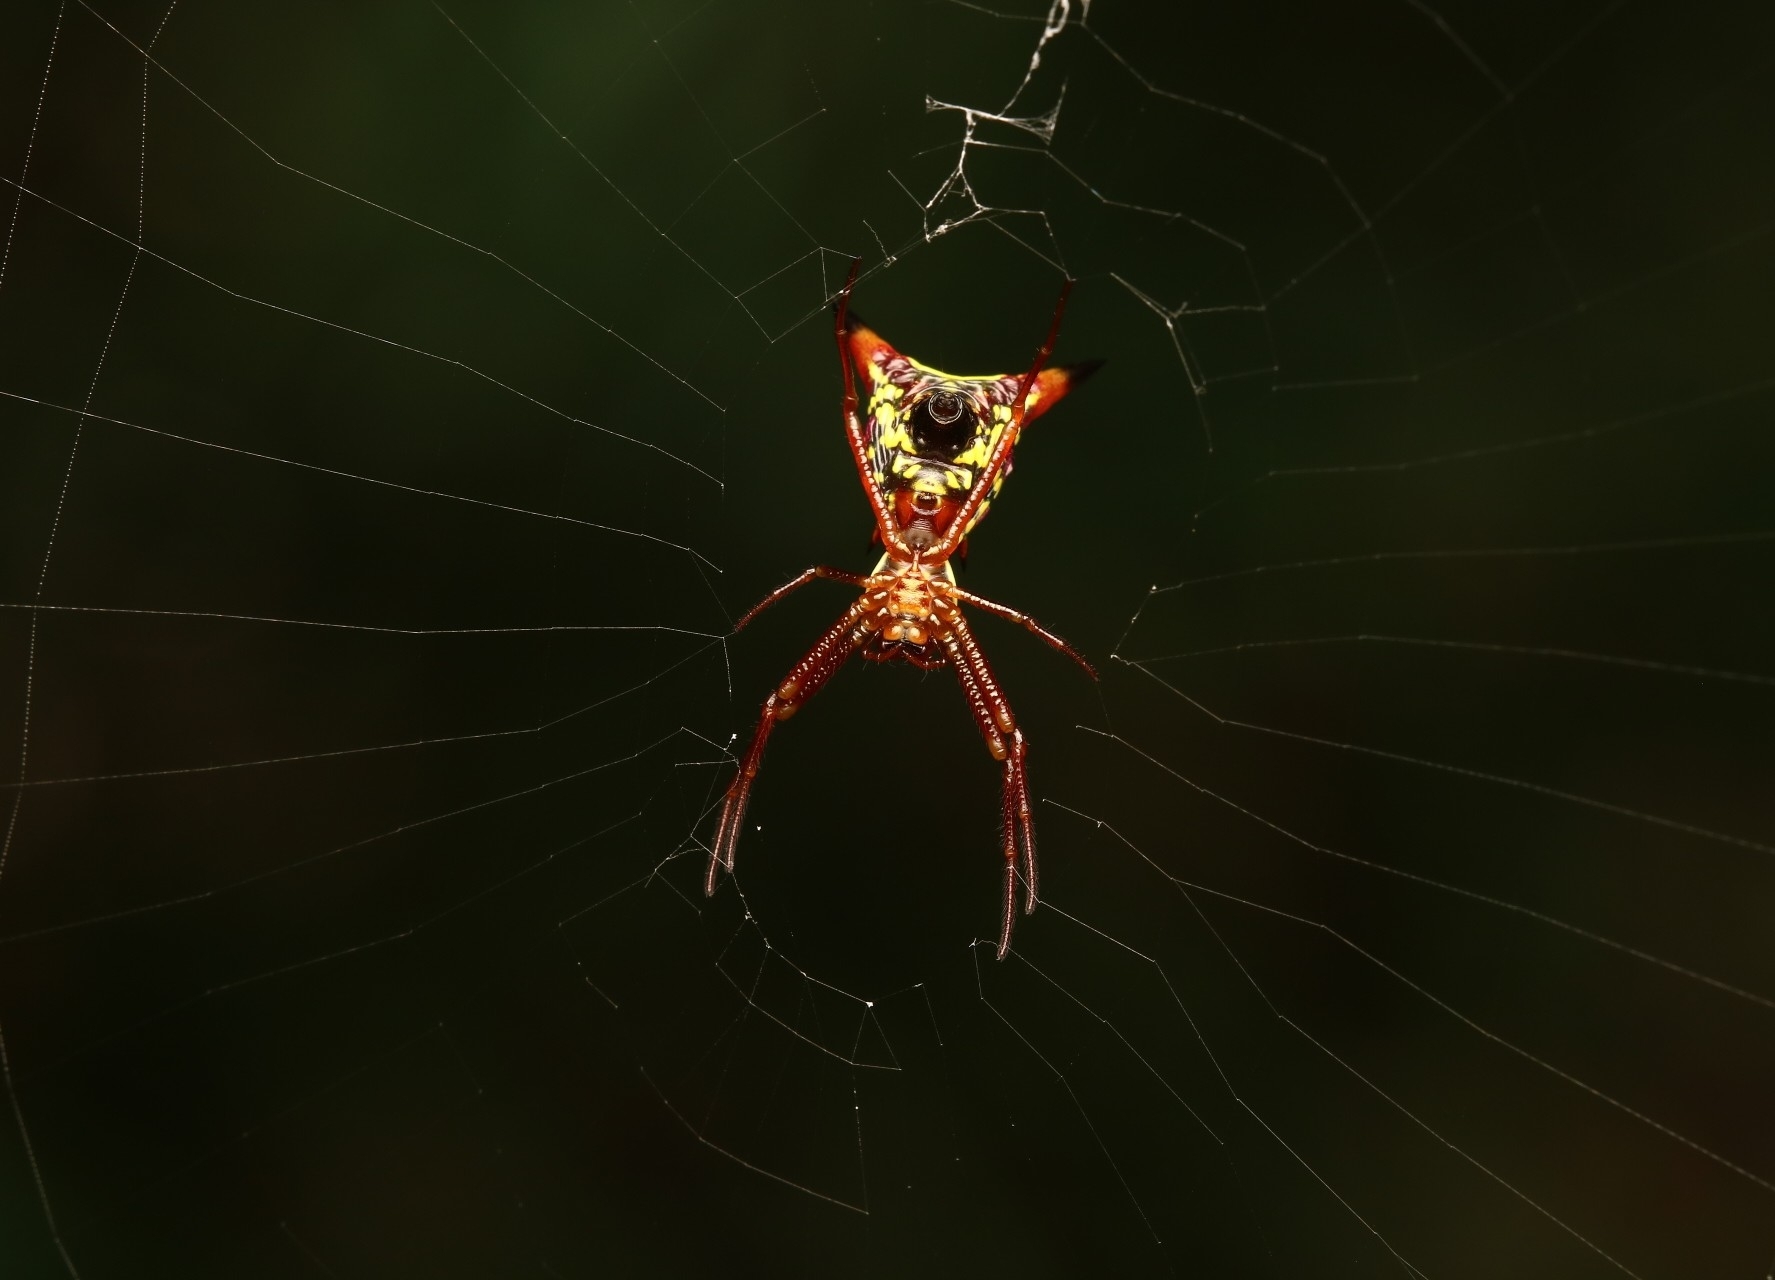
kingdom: Animalia
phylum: Arthropoda
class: Arachnida
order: Araneae
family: Araneidae
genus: Micrathena
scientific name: Micrathena sagittata
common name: Orb weavers
